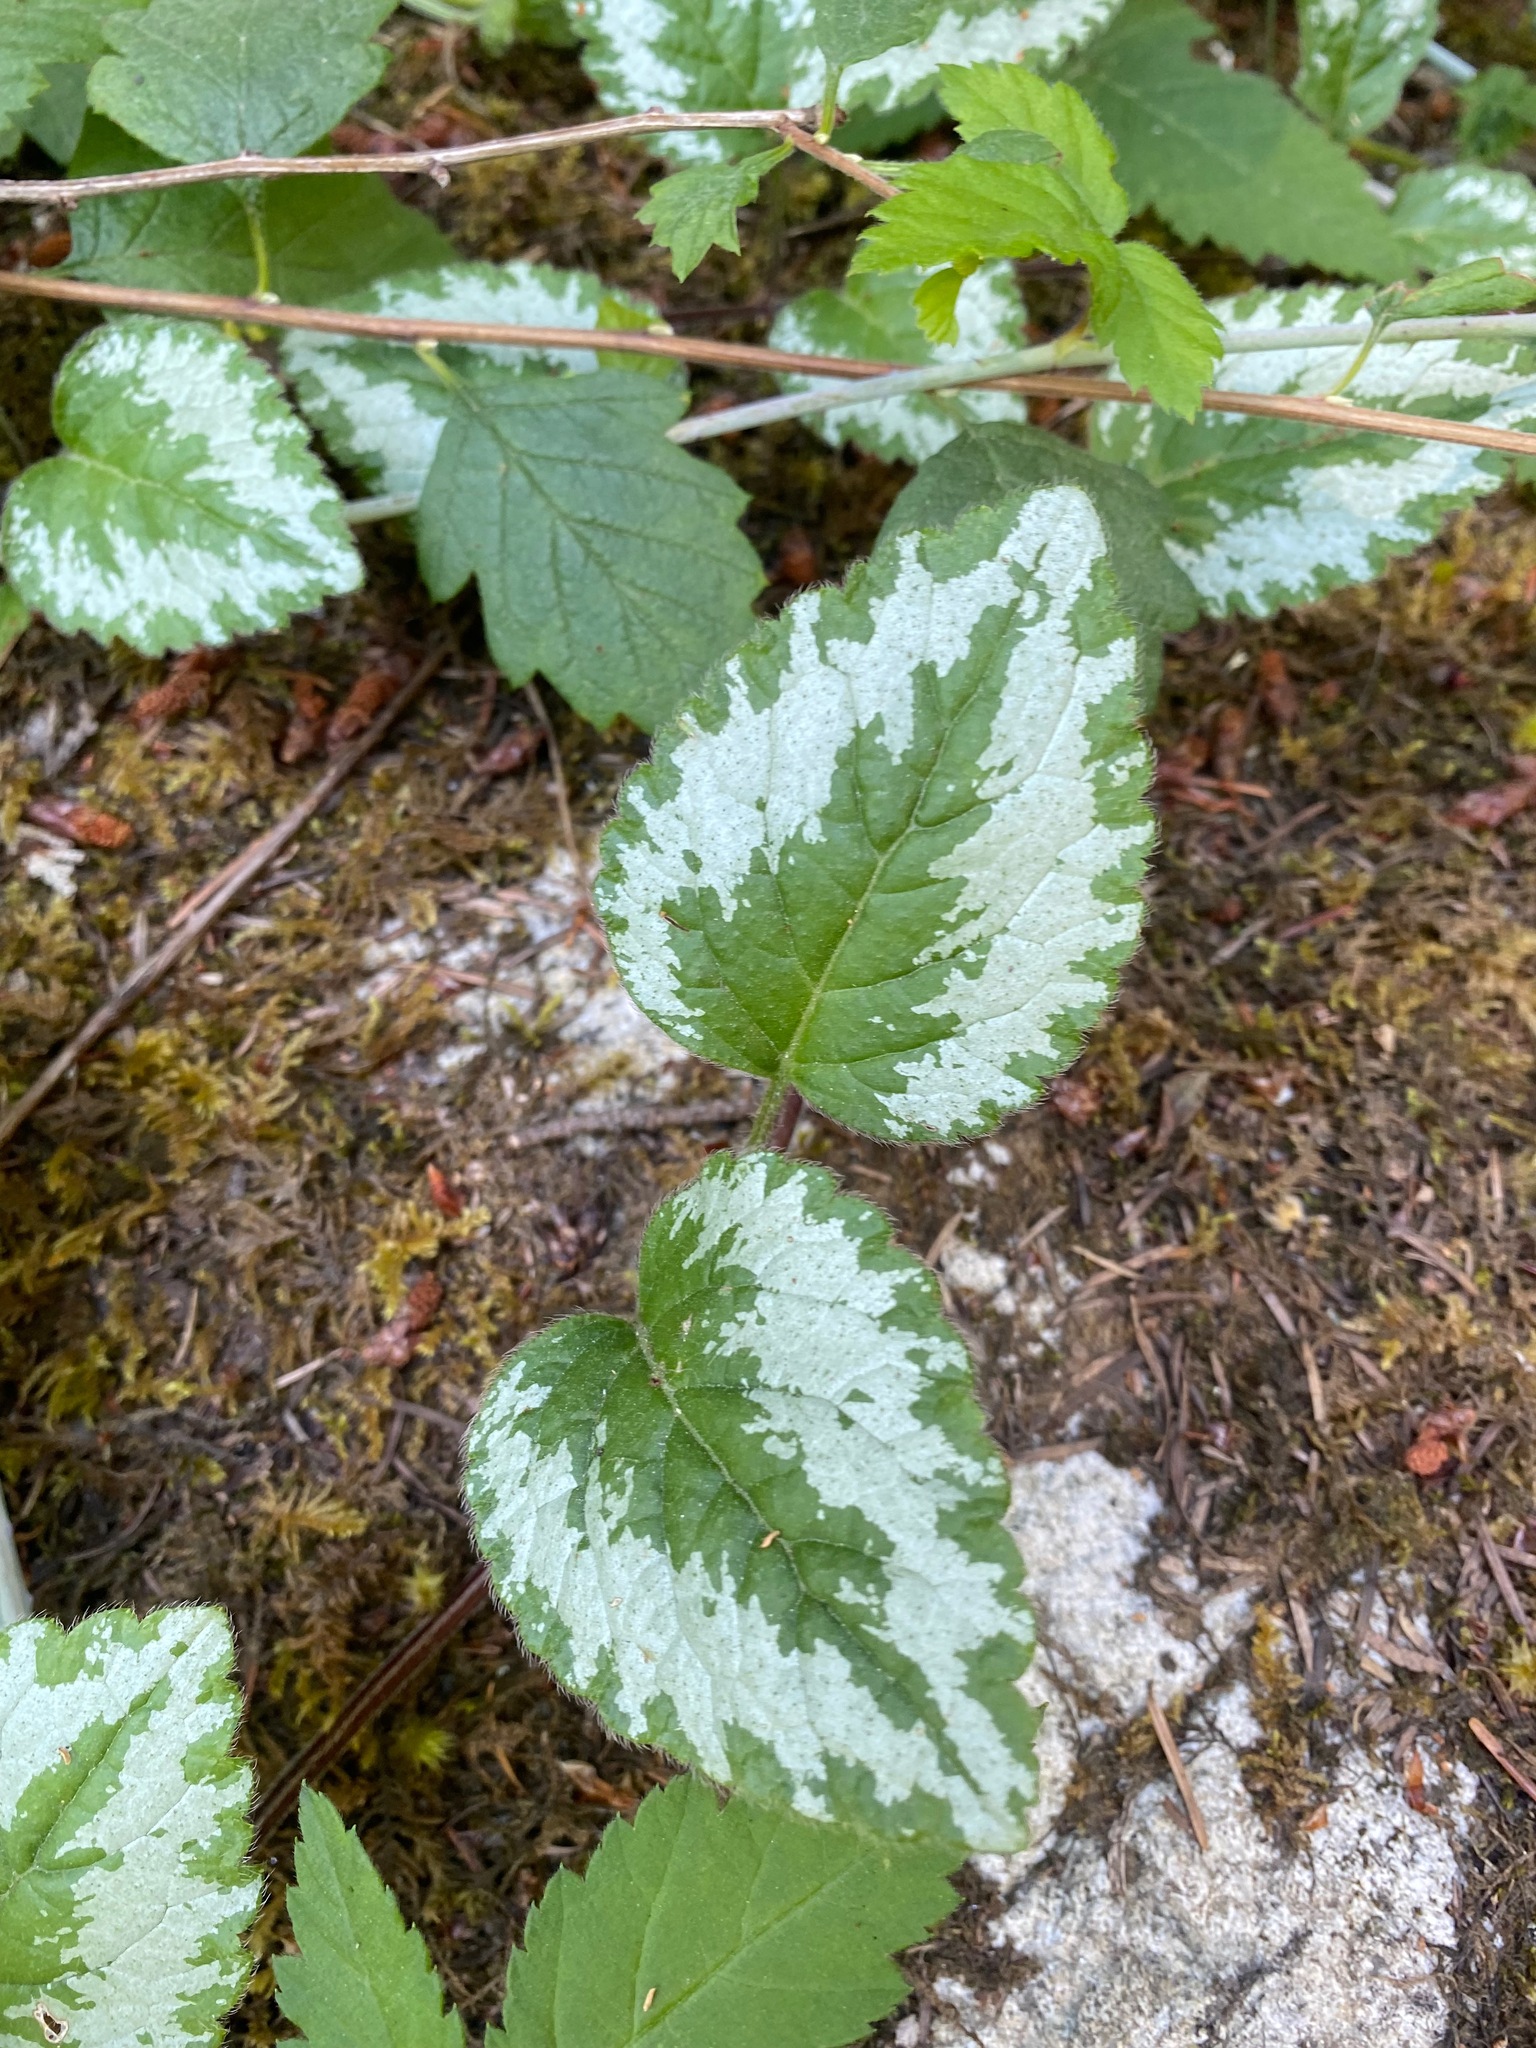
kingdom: Plantae
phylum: Tracheophyta
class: Magnoliopsida
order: Lamiales
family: Lamiaceae
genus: Lamium
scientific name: Lamium galeobdolon
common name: Yellow archangel
